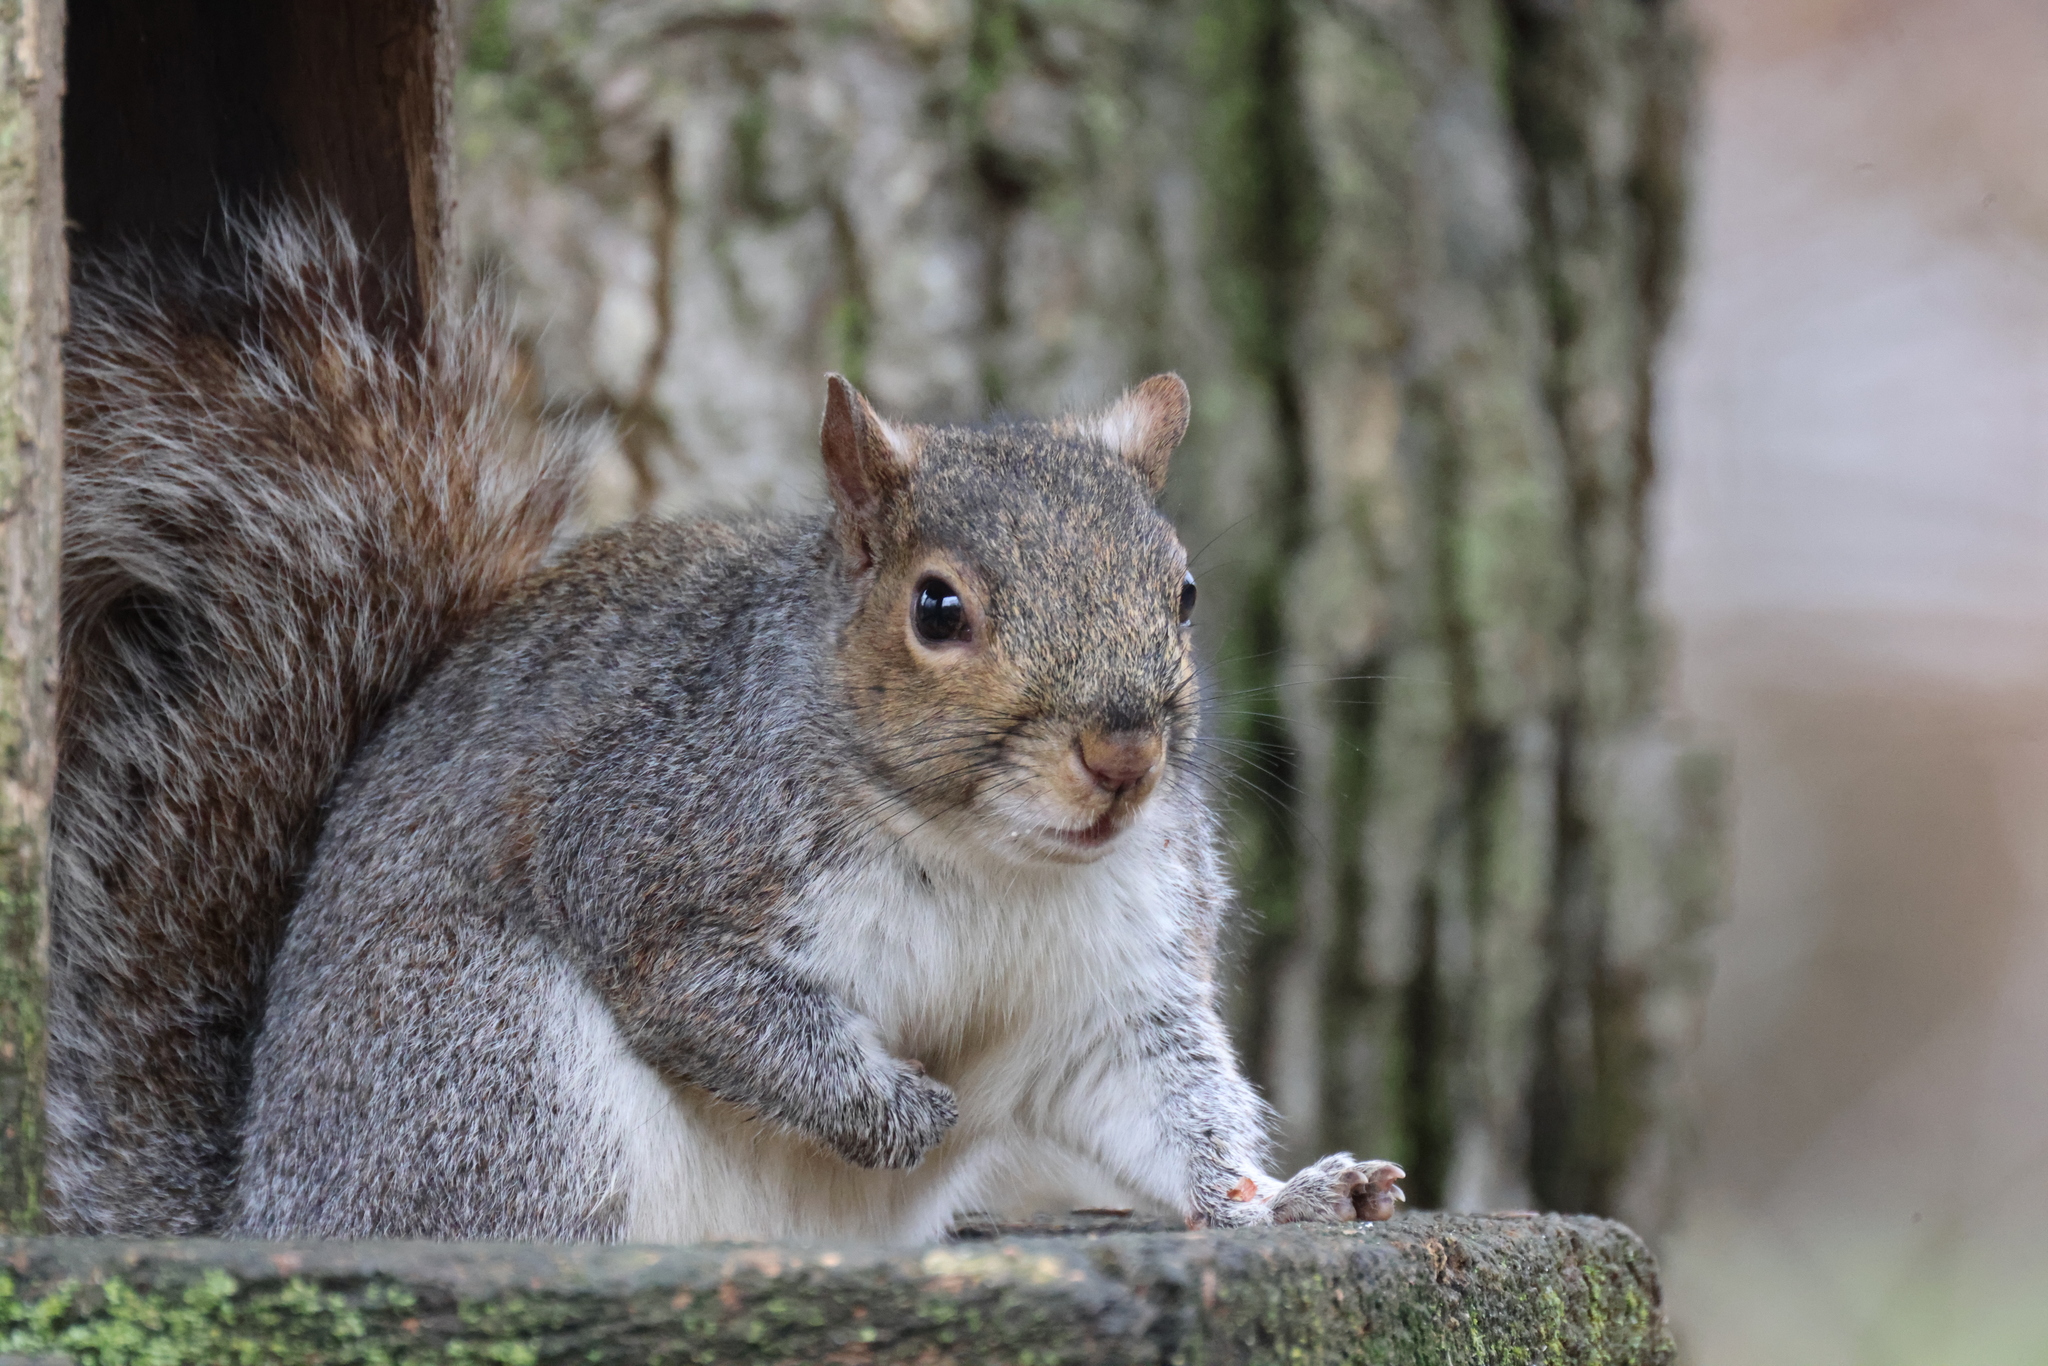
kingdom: Animalia
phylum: Chordata
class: Mammalia
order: Rodentia
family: Sciuridae
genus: Sciurus
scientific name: Sciurus carolinensis
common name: Eastern gray squirrel
